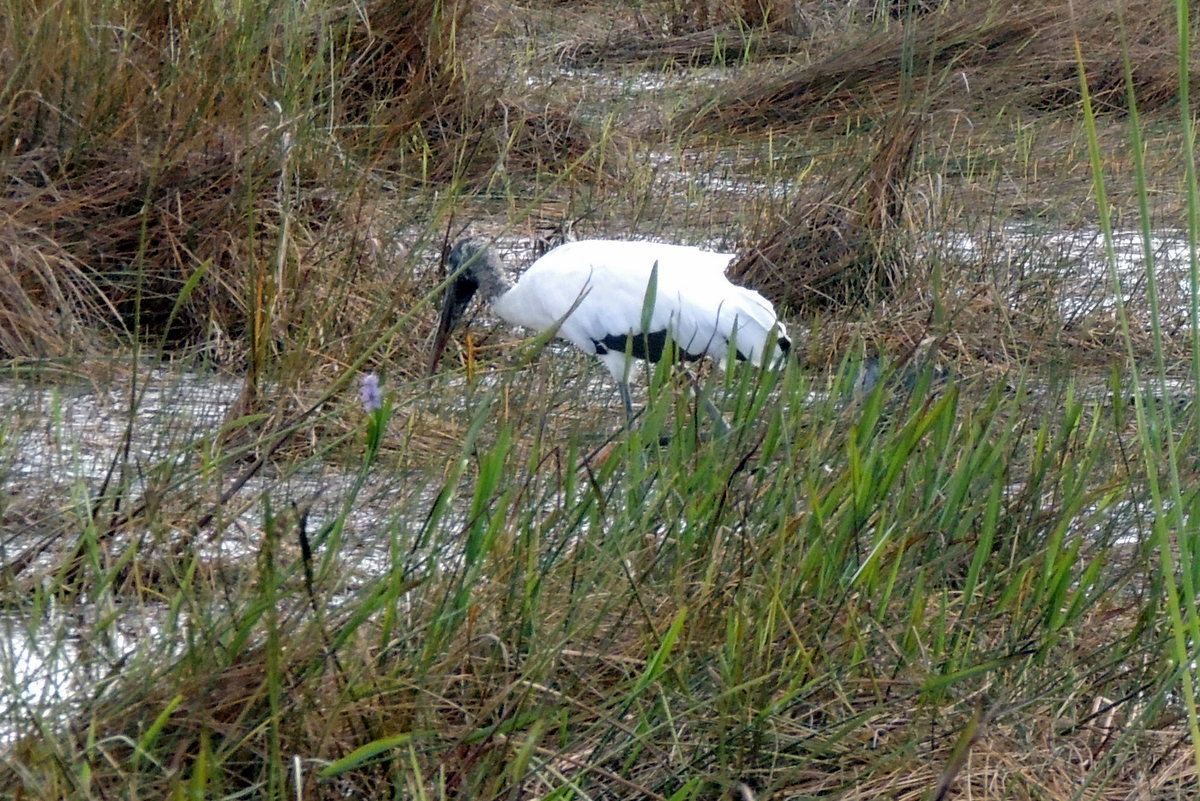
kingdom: Animalia
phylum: Chordata
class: Aves
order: Ciconiiformes
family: Ciconiidae
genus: Mycteria
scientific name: Mycteria americana
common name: Wood stork
